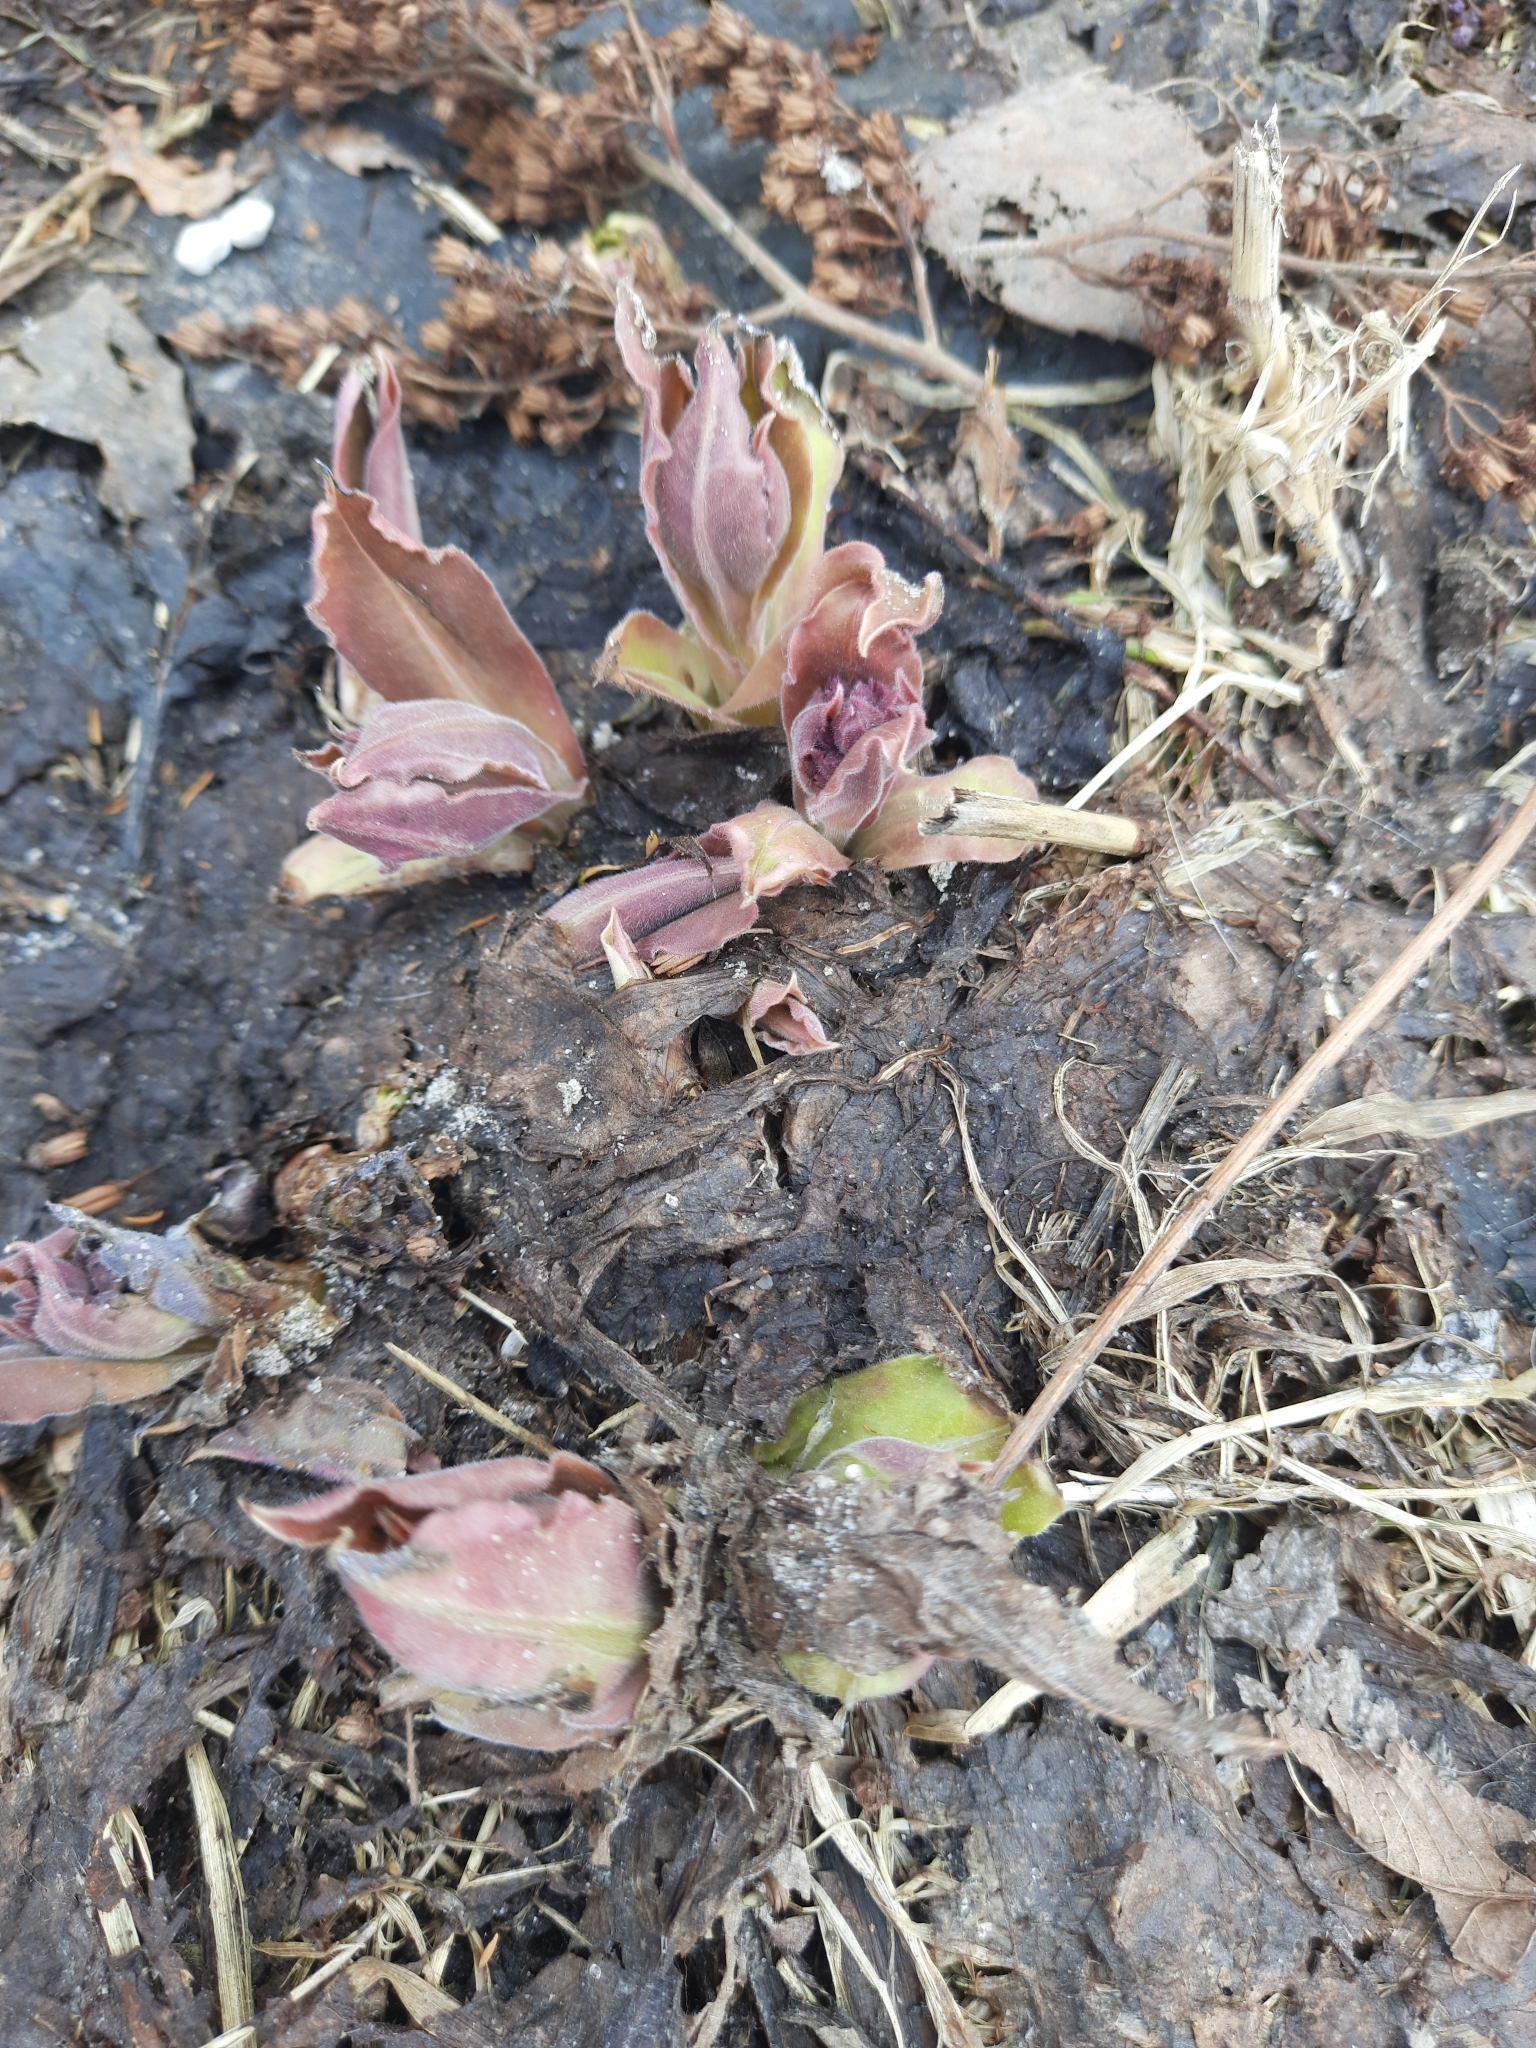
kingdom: Plantae
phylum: Tracheophyta
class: Magnoliopsida
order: Boraginales
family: Boraginaceae
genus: Pulmonaria
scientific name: Pulmonaria mollis
